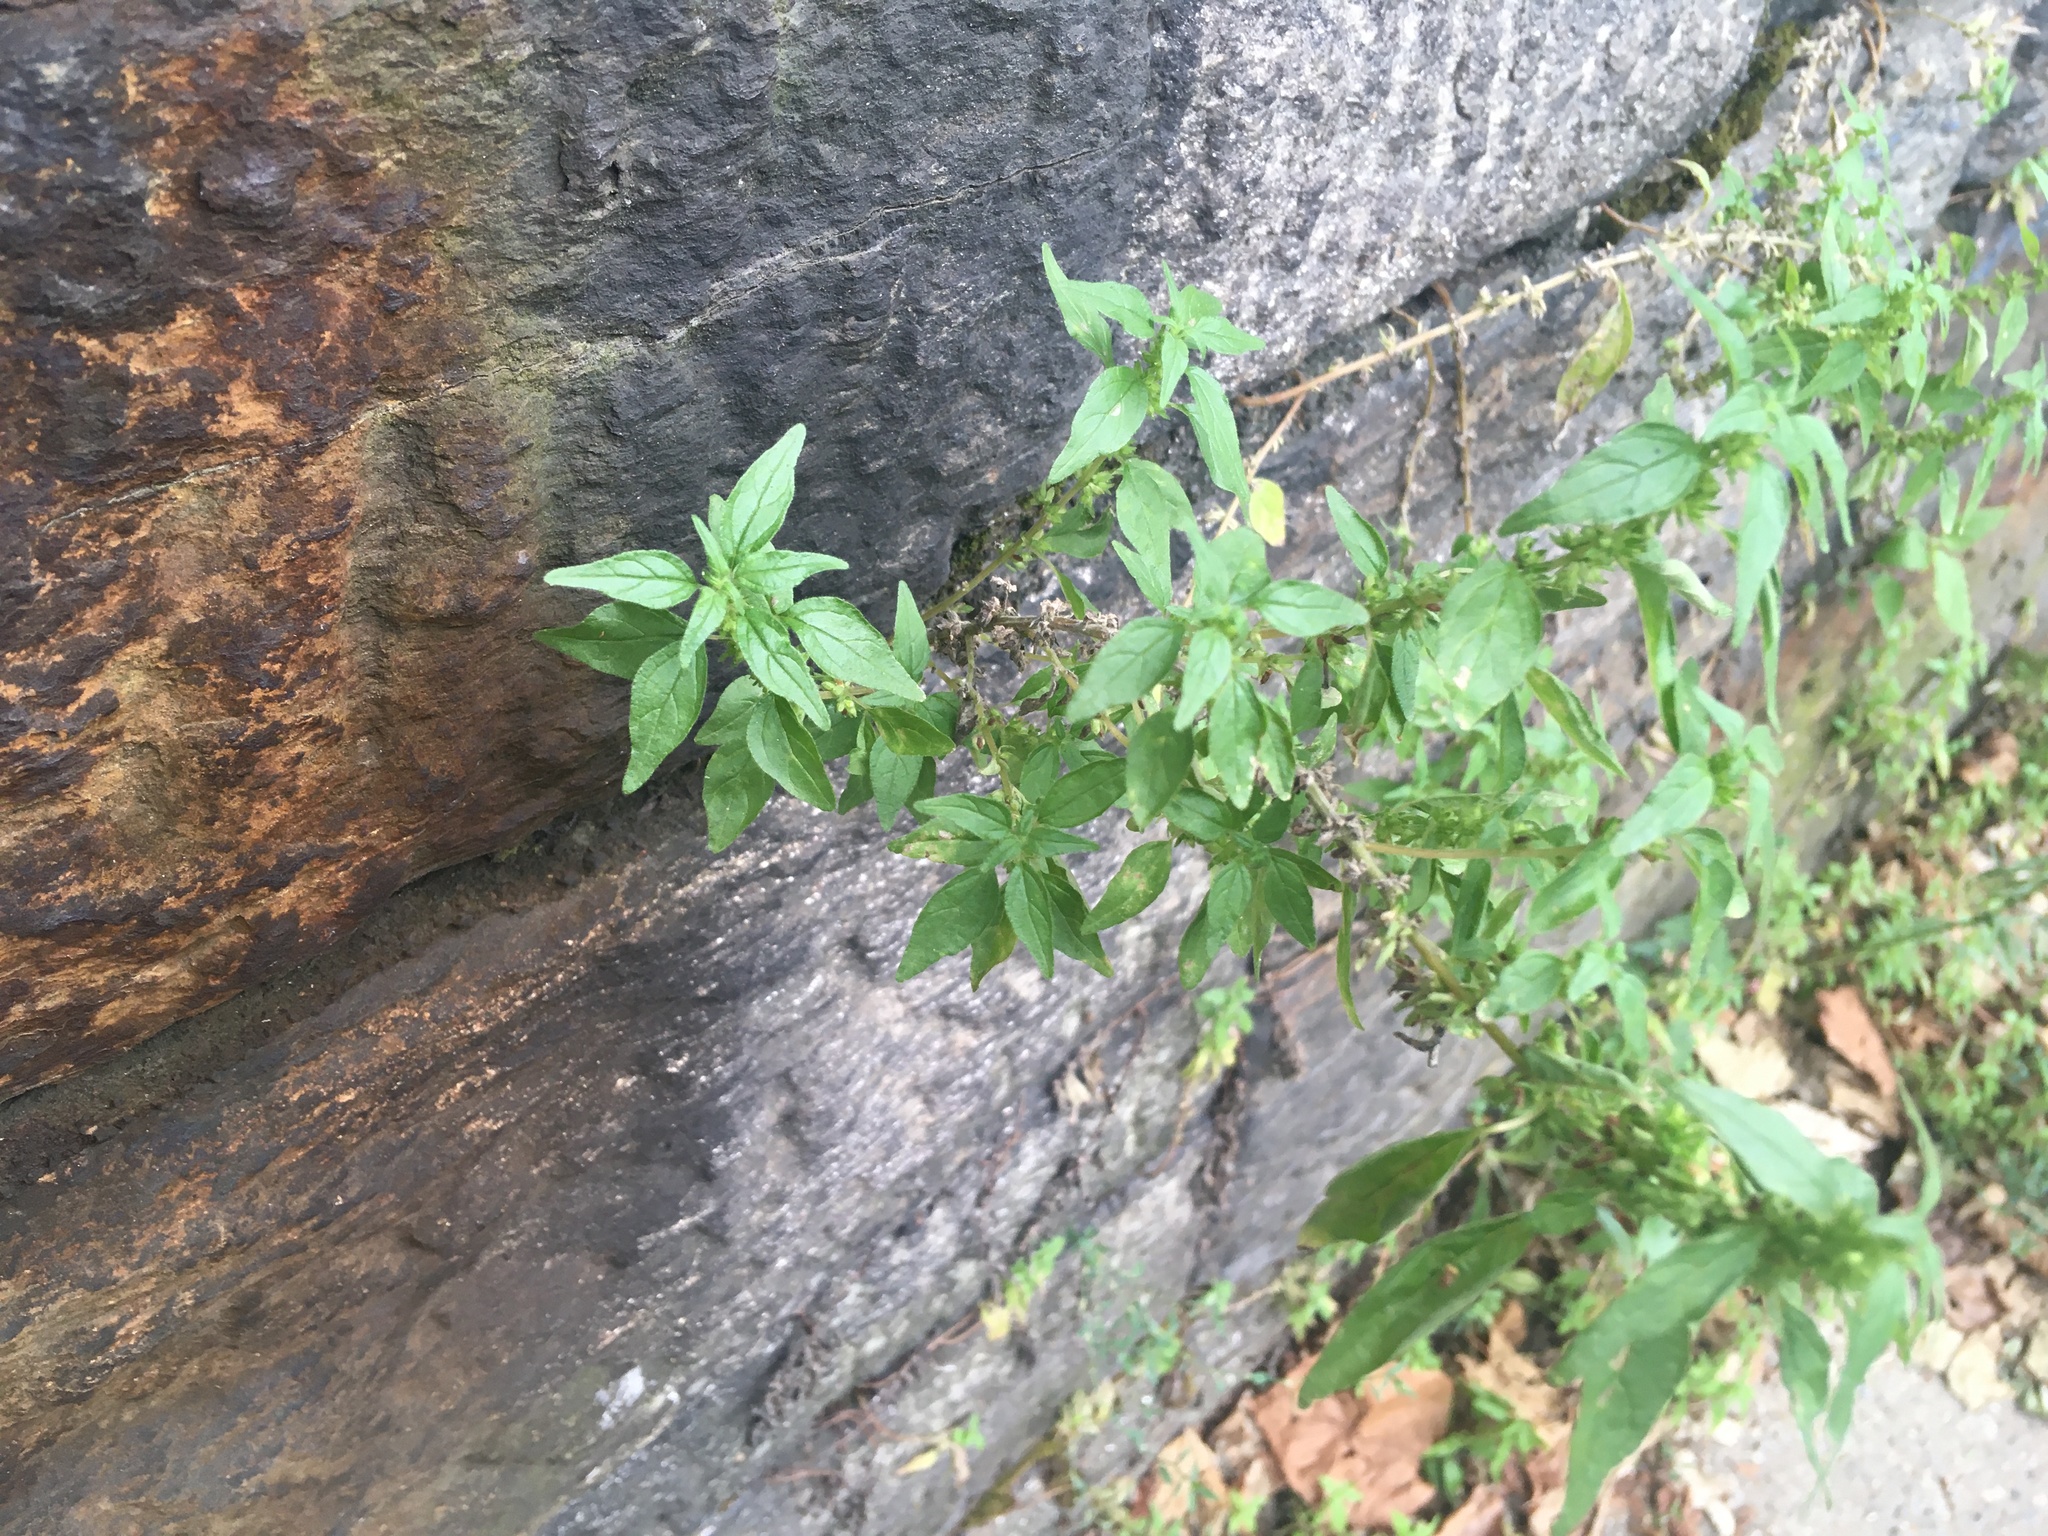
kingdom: Plantae
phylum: Tracheophyta
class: Magnoliopsida
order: Rosales
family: Urticaceae
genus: Parietaria
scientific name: Parietaria pensylvanica
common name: Pennsylvania pellitory
